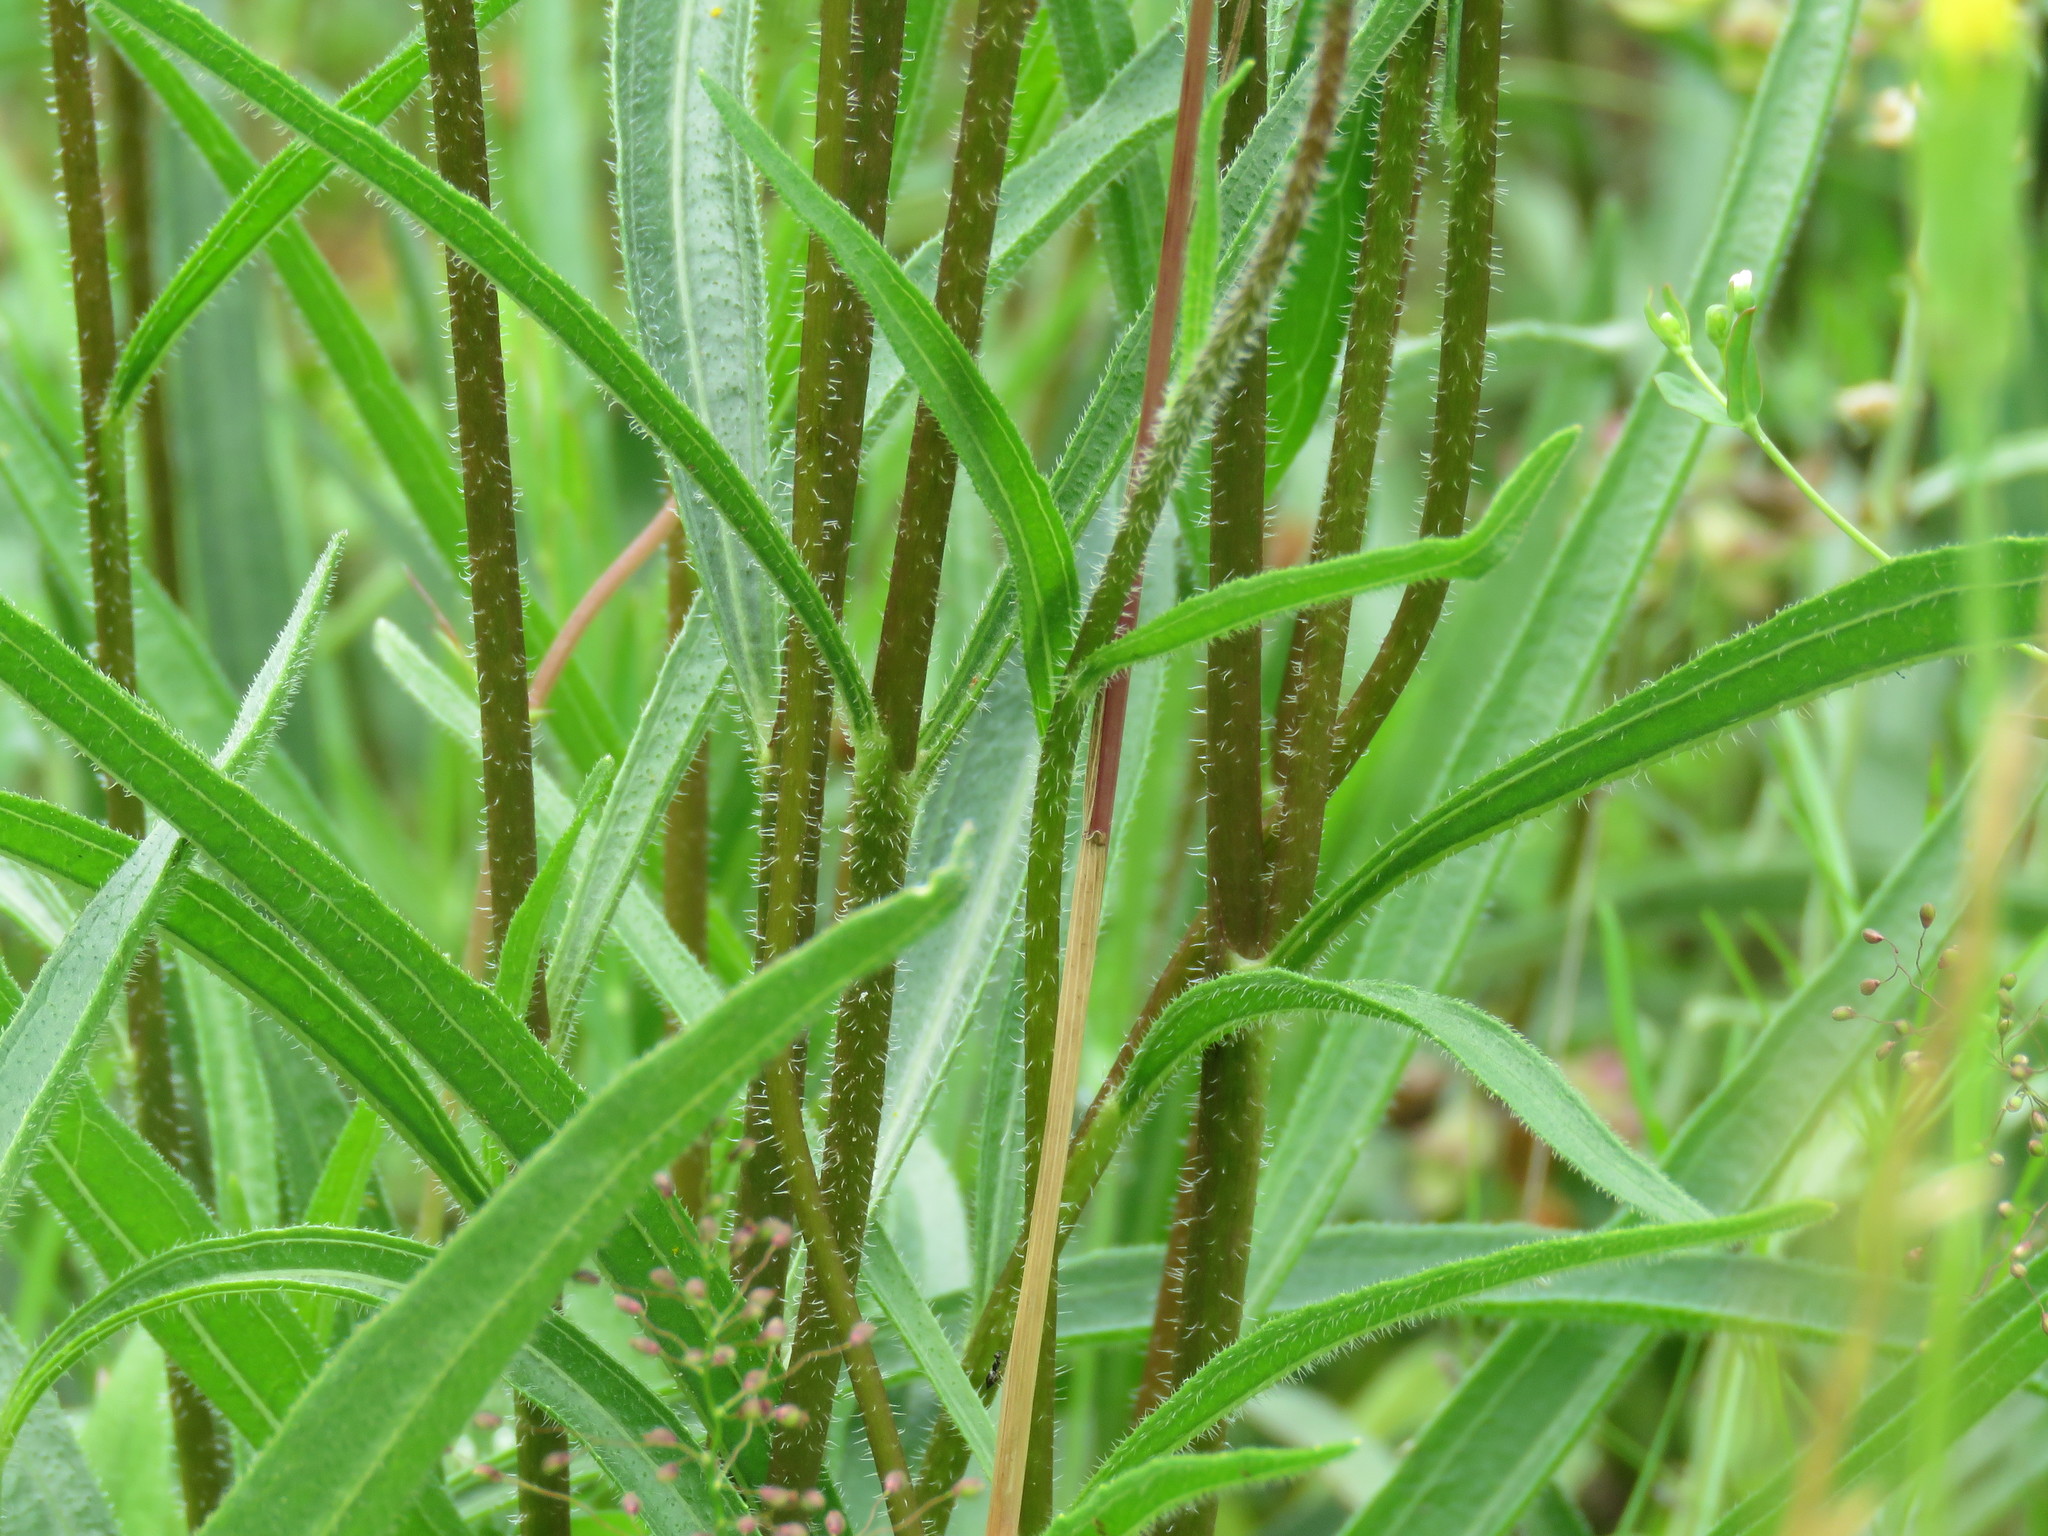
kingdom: Plantae
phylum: Tracheophyta
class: Magnoliopsida
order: Asterales
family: Asteraceae
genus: Echinacea
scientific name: Echinacea sanguinea
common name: Sanguine purple-coneflower
